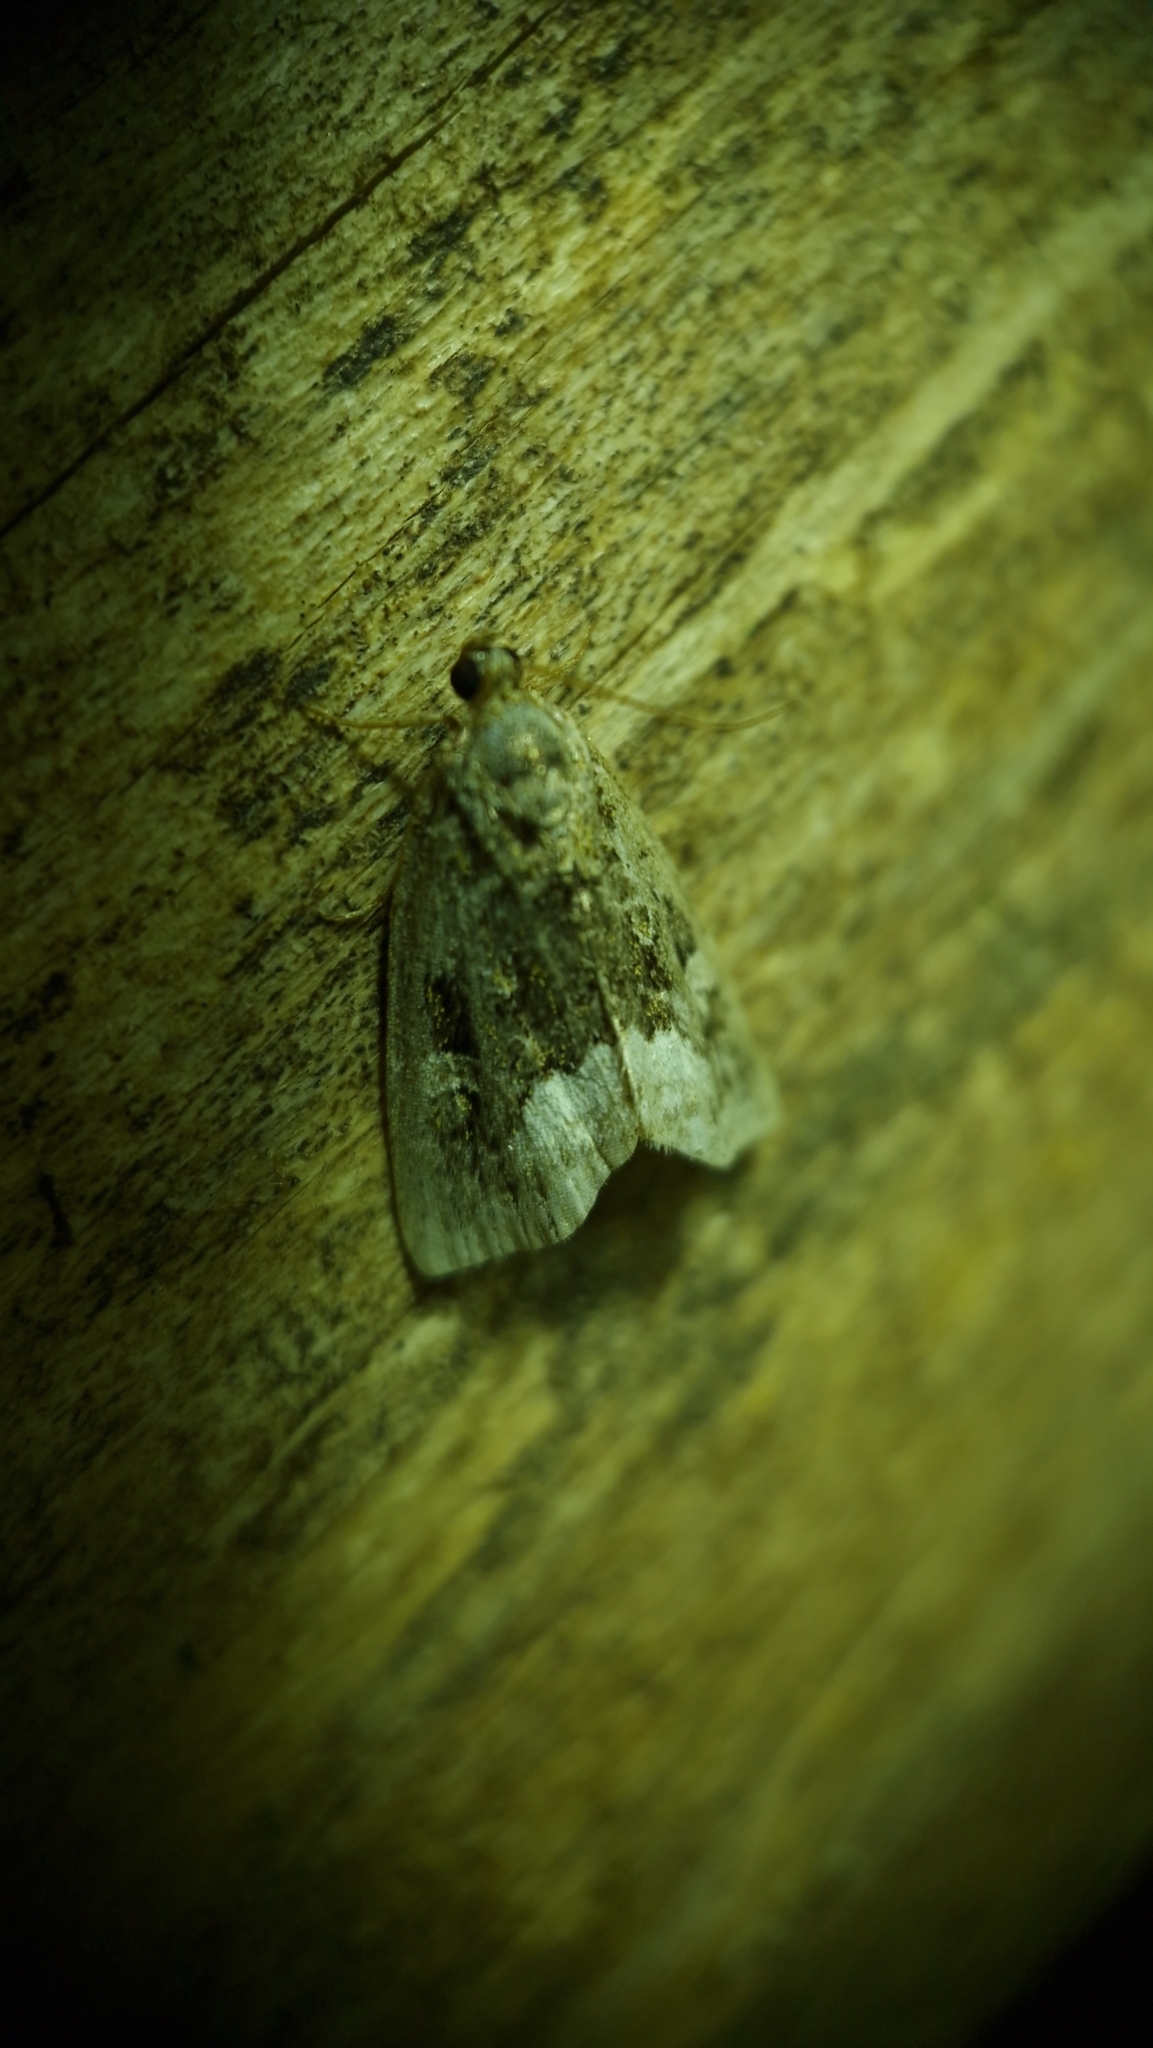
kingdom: Animalia
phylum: Arthropoda
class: Insecta
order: Lepidoptera
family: Noctuidae
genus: Deltote
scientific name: Deltote pygarga
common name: Marbled white spot
